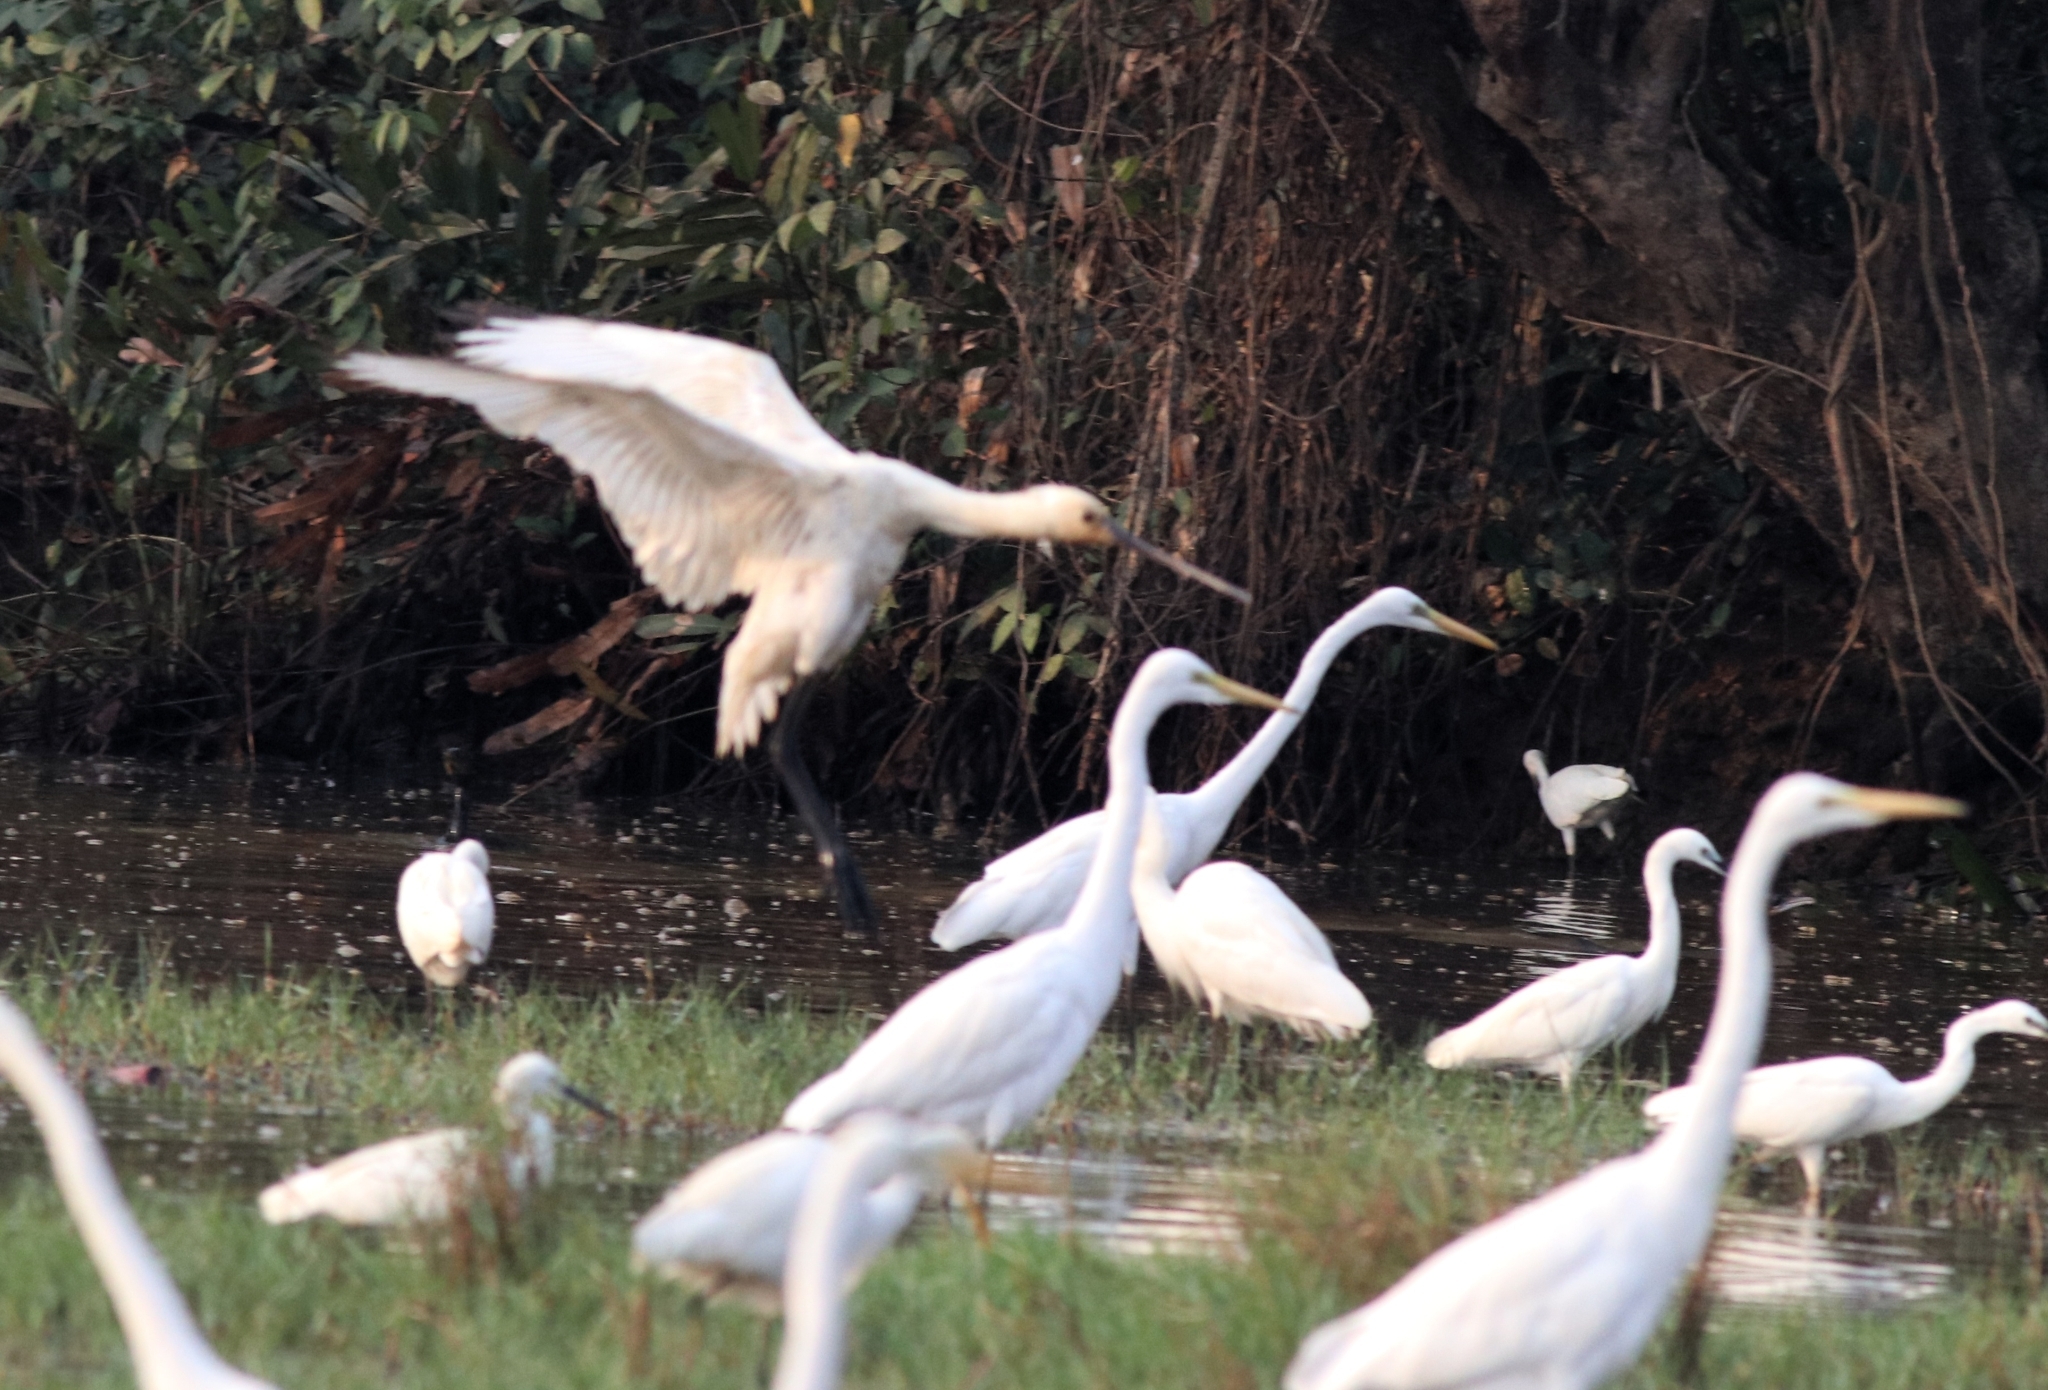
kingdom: Animalia
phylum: Chordata
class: Aves
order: Pelecaniformes
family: Ardeidae
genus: Ardea
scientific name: Ardea alba
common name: Great egret
